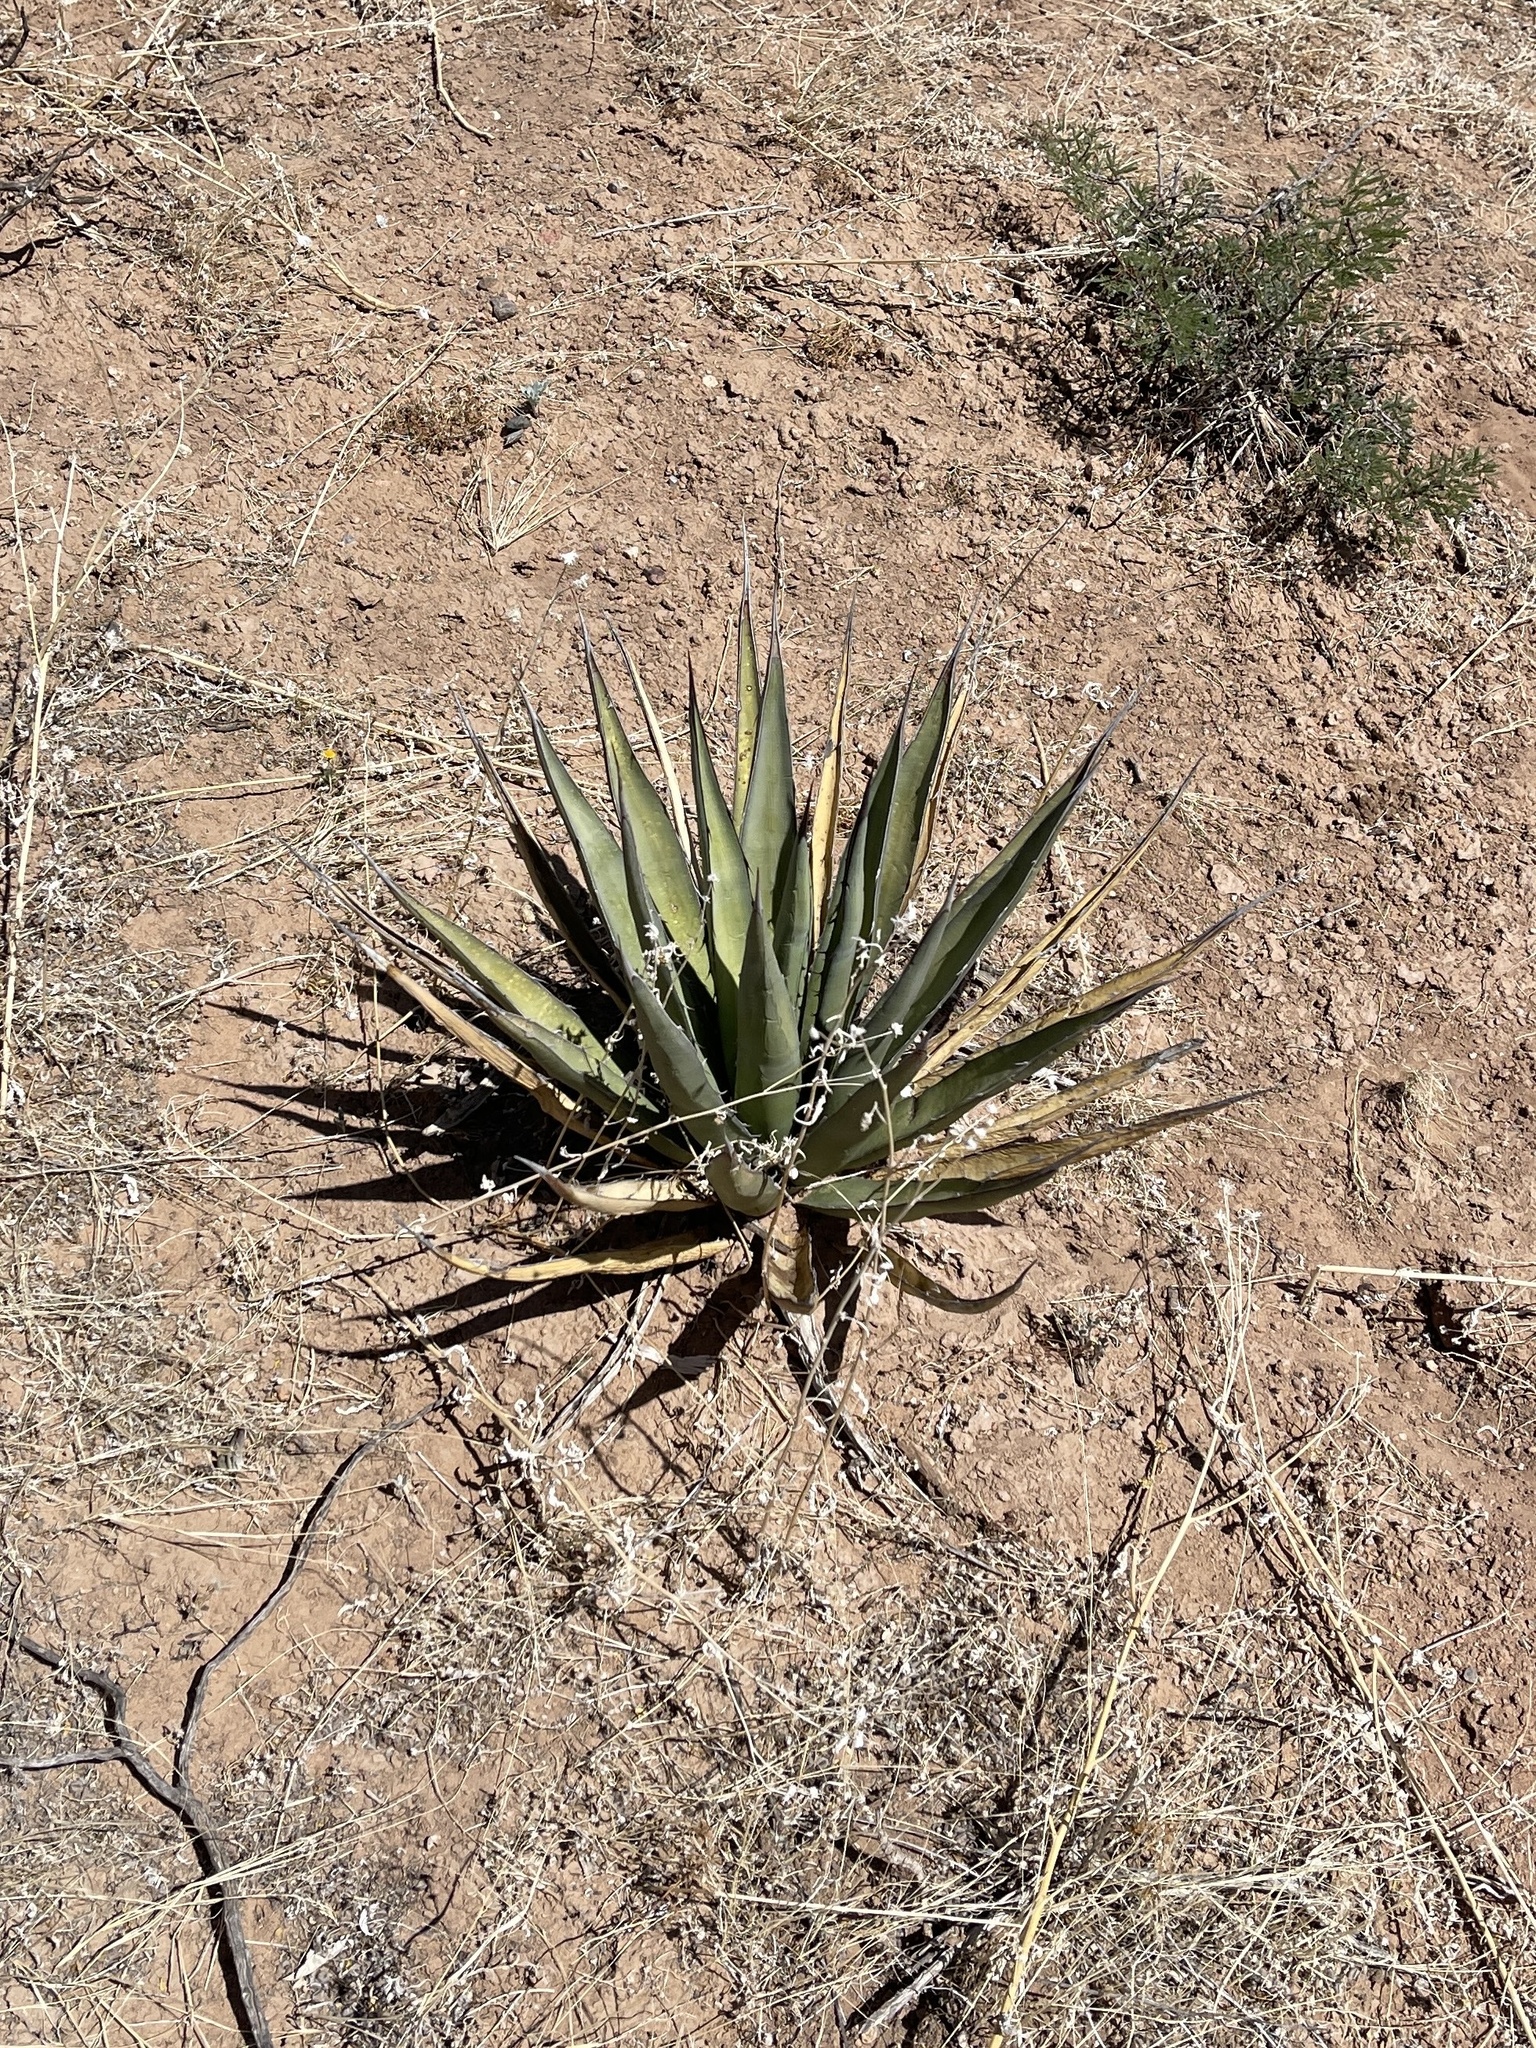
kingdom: Plantae
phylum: Tracheophyta
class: Liliopsida
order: Asparagales
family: Asparagaceae
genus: Agave
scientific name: Agave lechuguilla
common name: Lecheguilla agave
